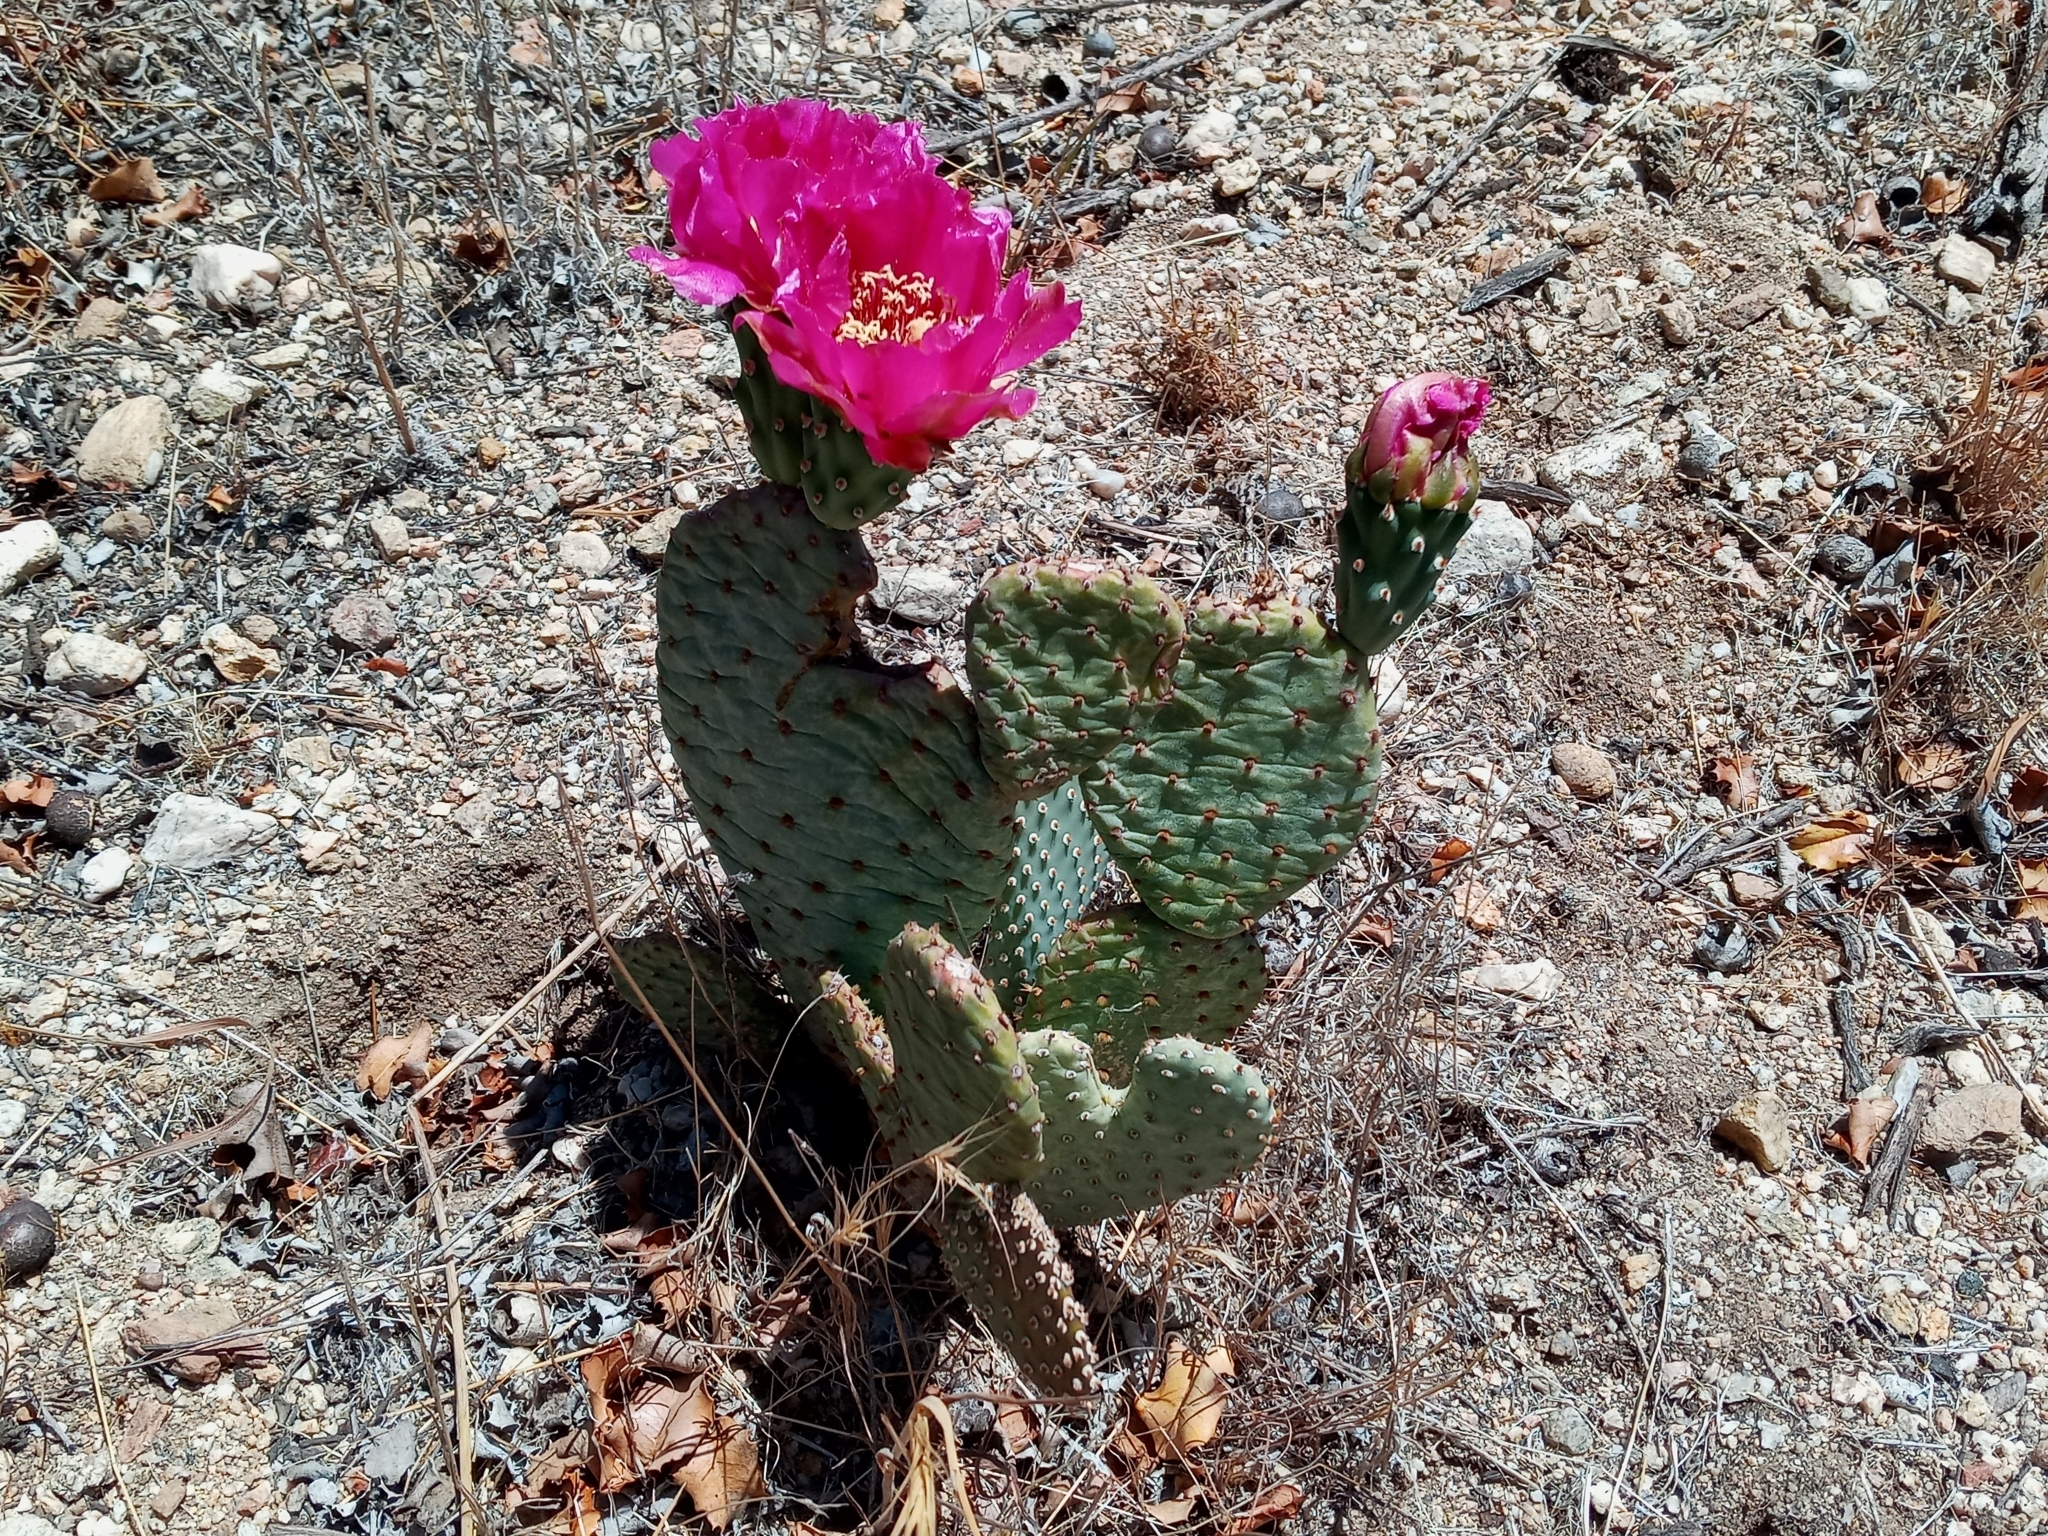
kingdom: Plantae
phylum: Tracheophyta
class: Magnoliopsida
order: Caryophyllales
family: Cactaceae
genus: Opuntia
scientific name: Opuntia basilaris
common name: Beavertail prickly-pear
